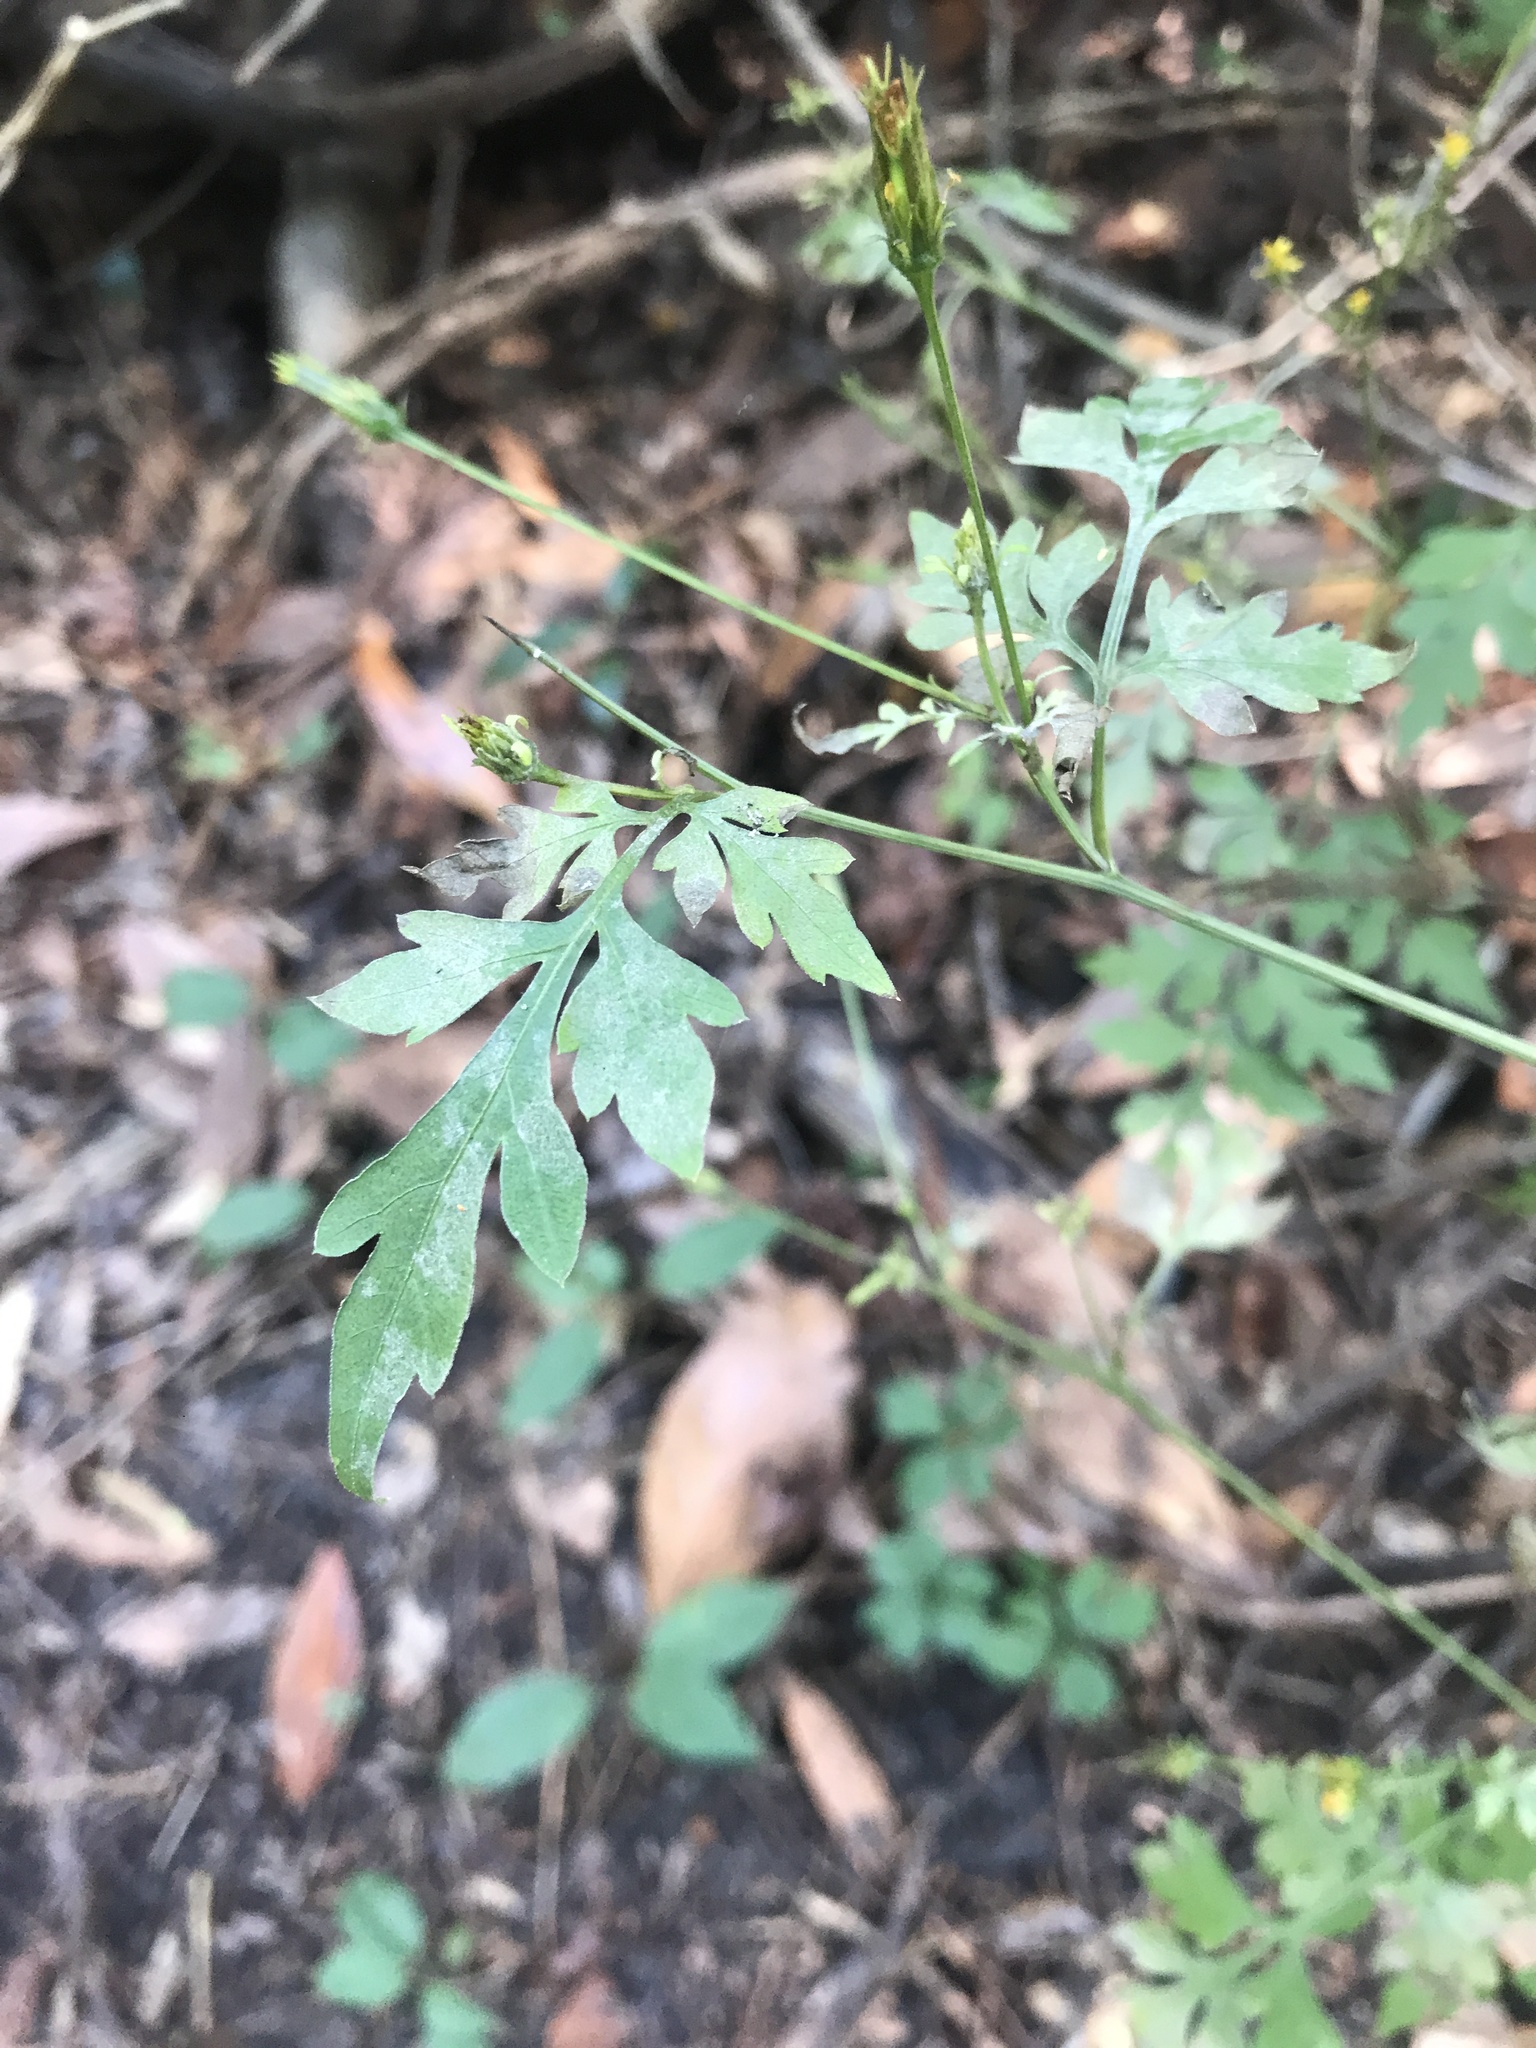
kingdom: Plantae
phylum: Tracheophyta
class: Magnoliopsida
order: Asterales
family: Asteraceae
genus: Bidens
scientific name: Bidens bipinnata
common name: Spanish-needles
